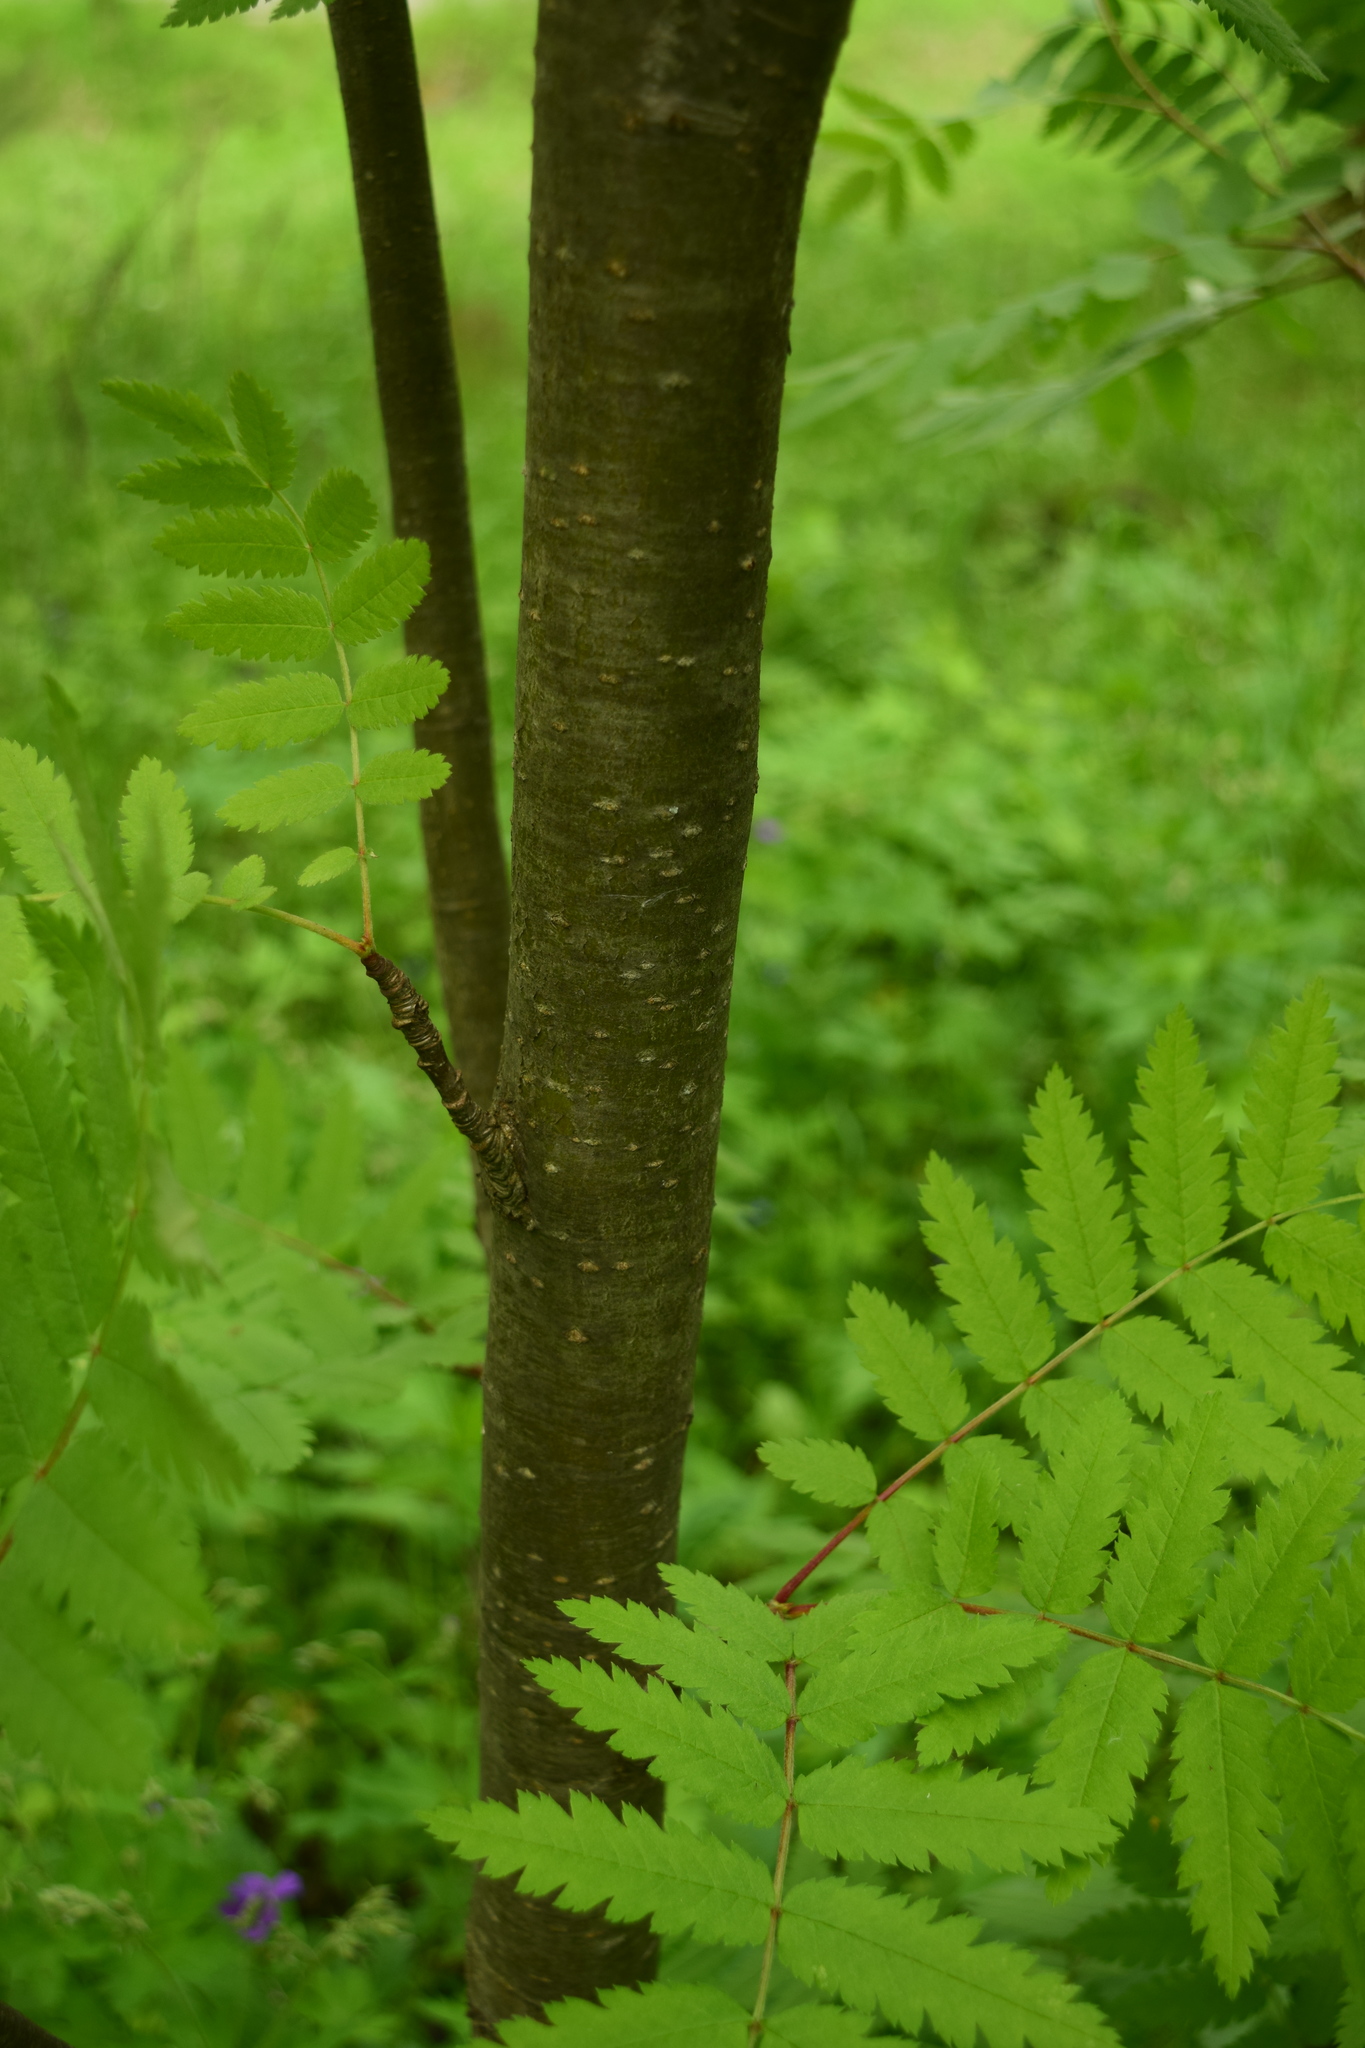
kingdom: Plantae
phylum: Tracheophyta
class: Magnoliopsida
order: Rosales
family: Rosaceae
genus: Sorbus
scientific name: Sorbus aucuparia
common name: Rowan
